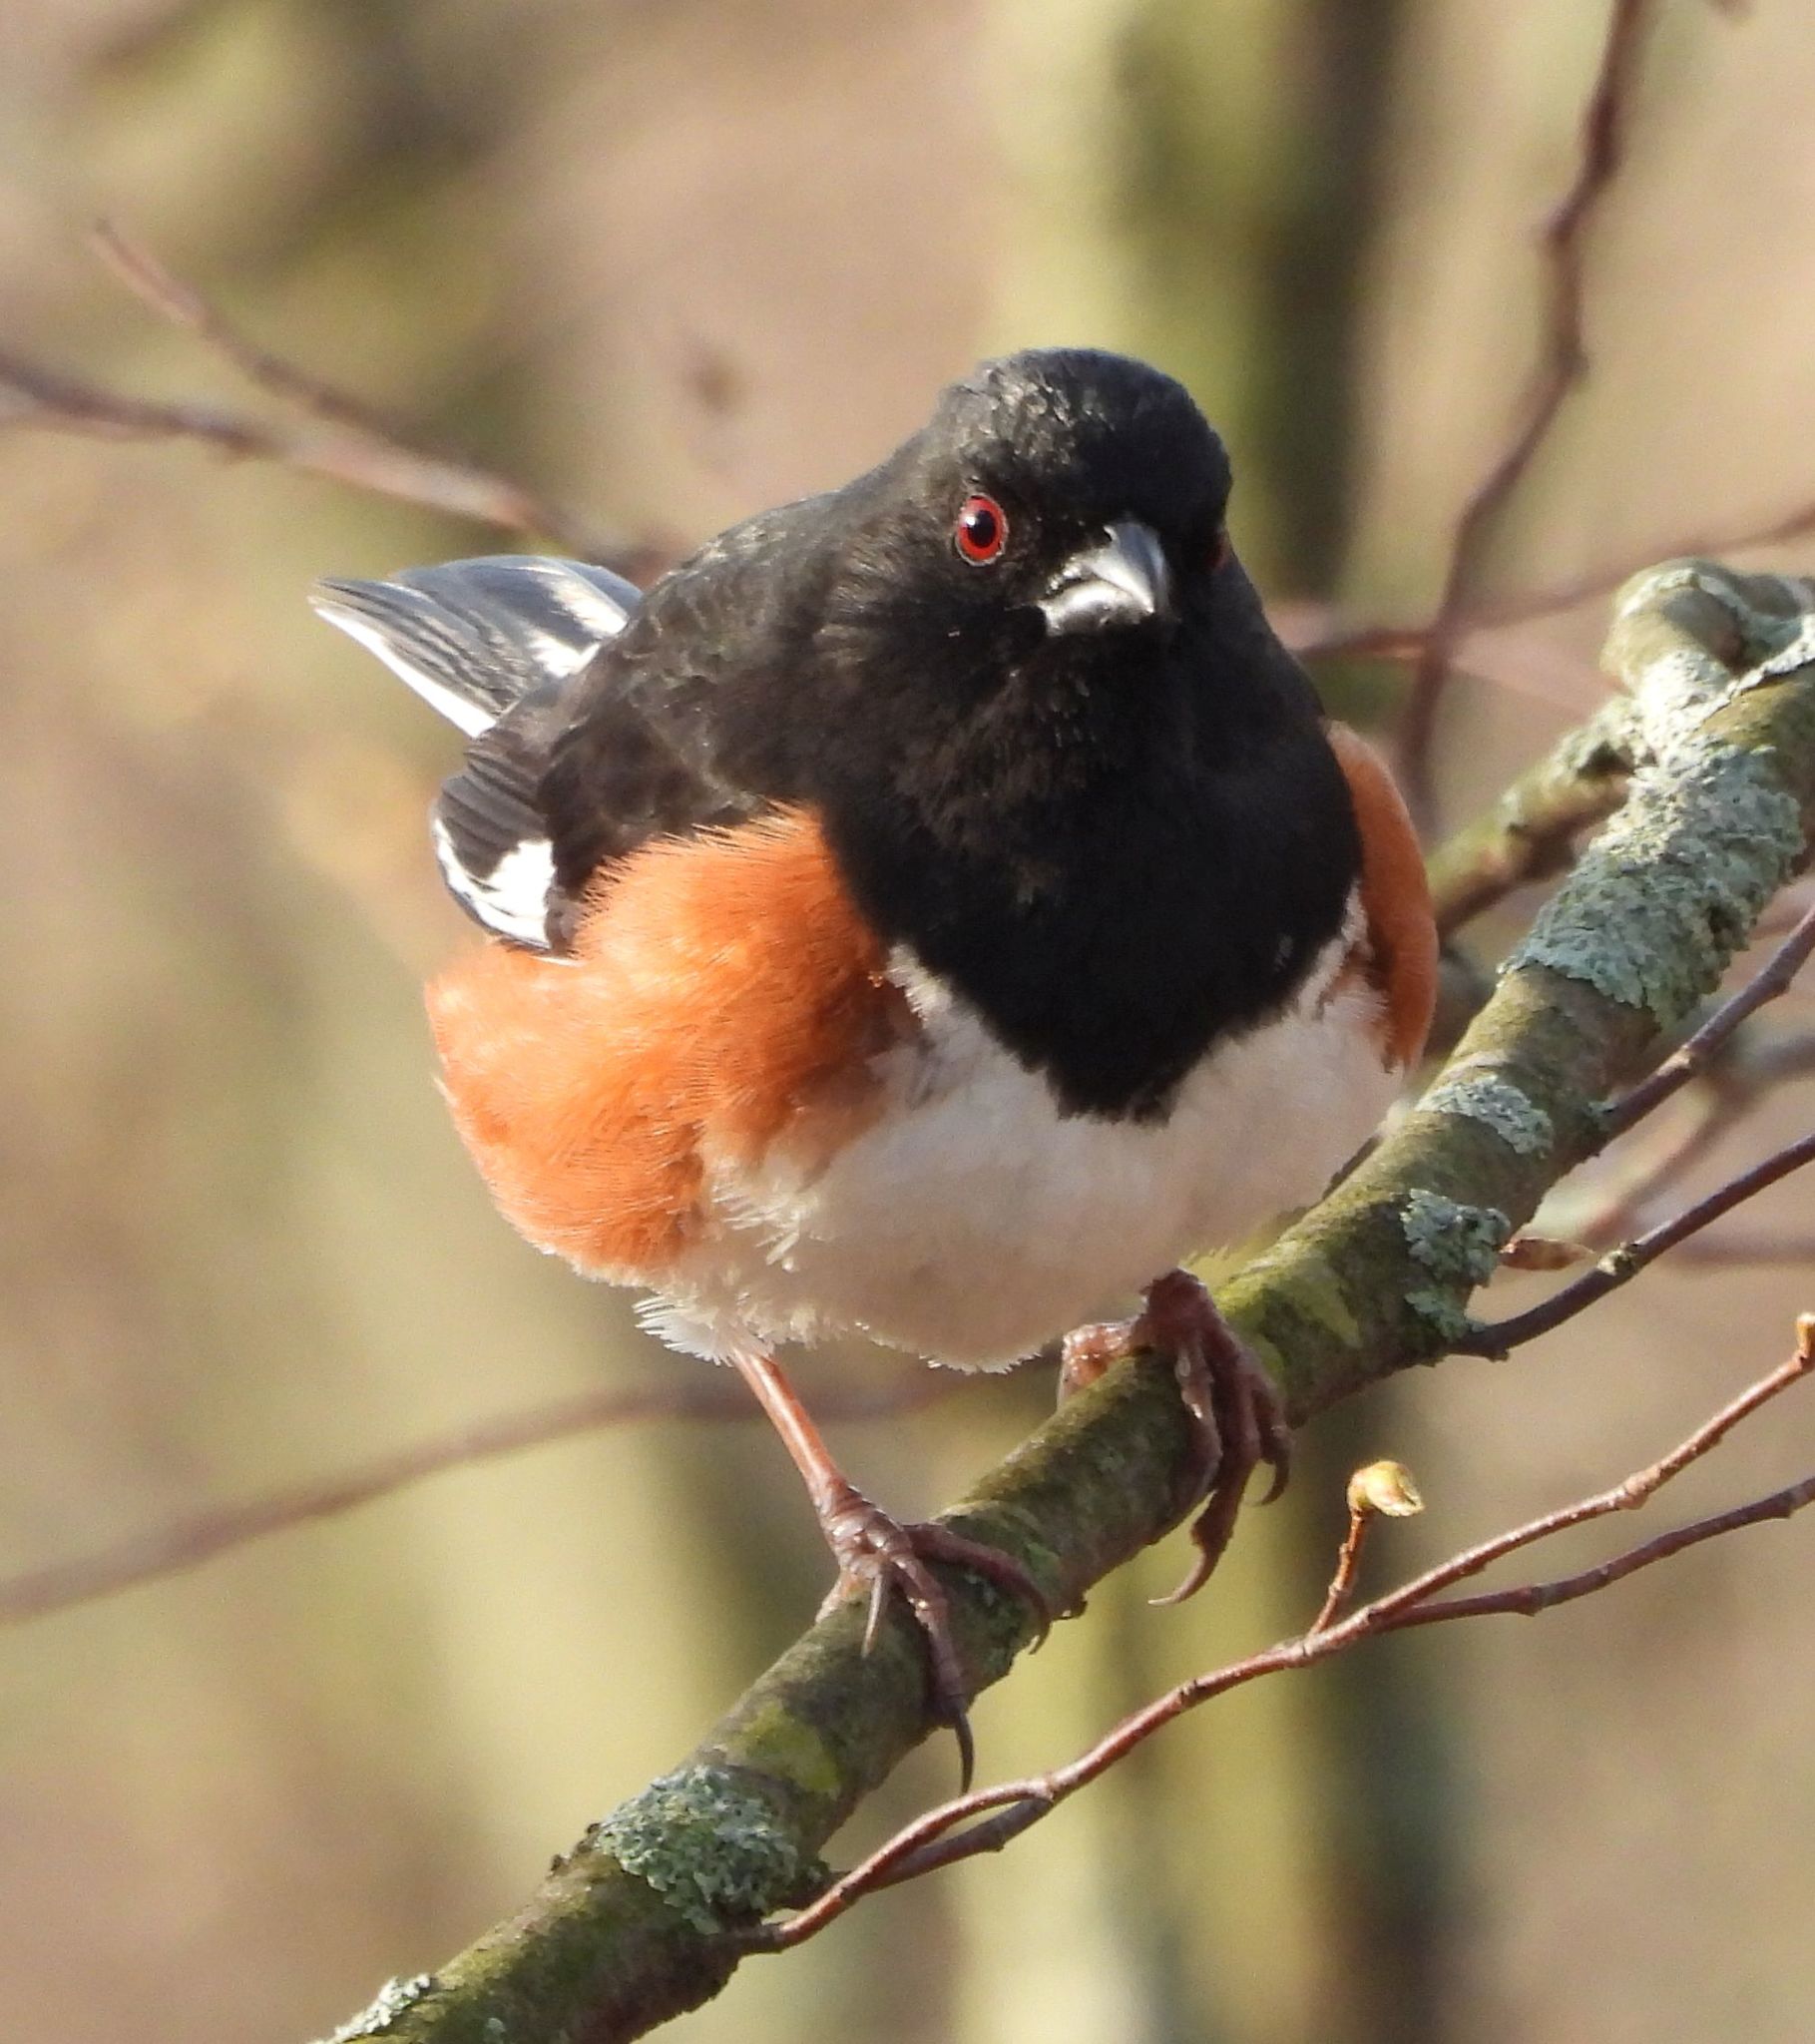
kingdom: Animalia
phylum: Chordata
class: Aves
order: Passeriformes
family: Passerellidae
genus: Pipilo
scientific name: Pipilo erythrophthalmus
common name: Eastern towhee
